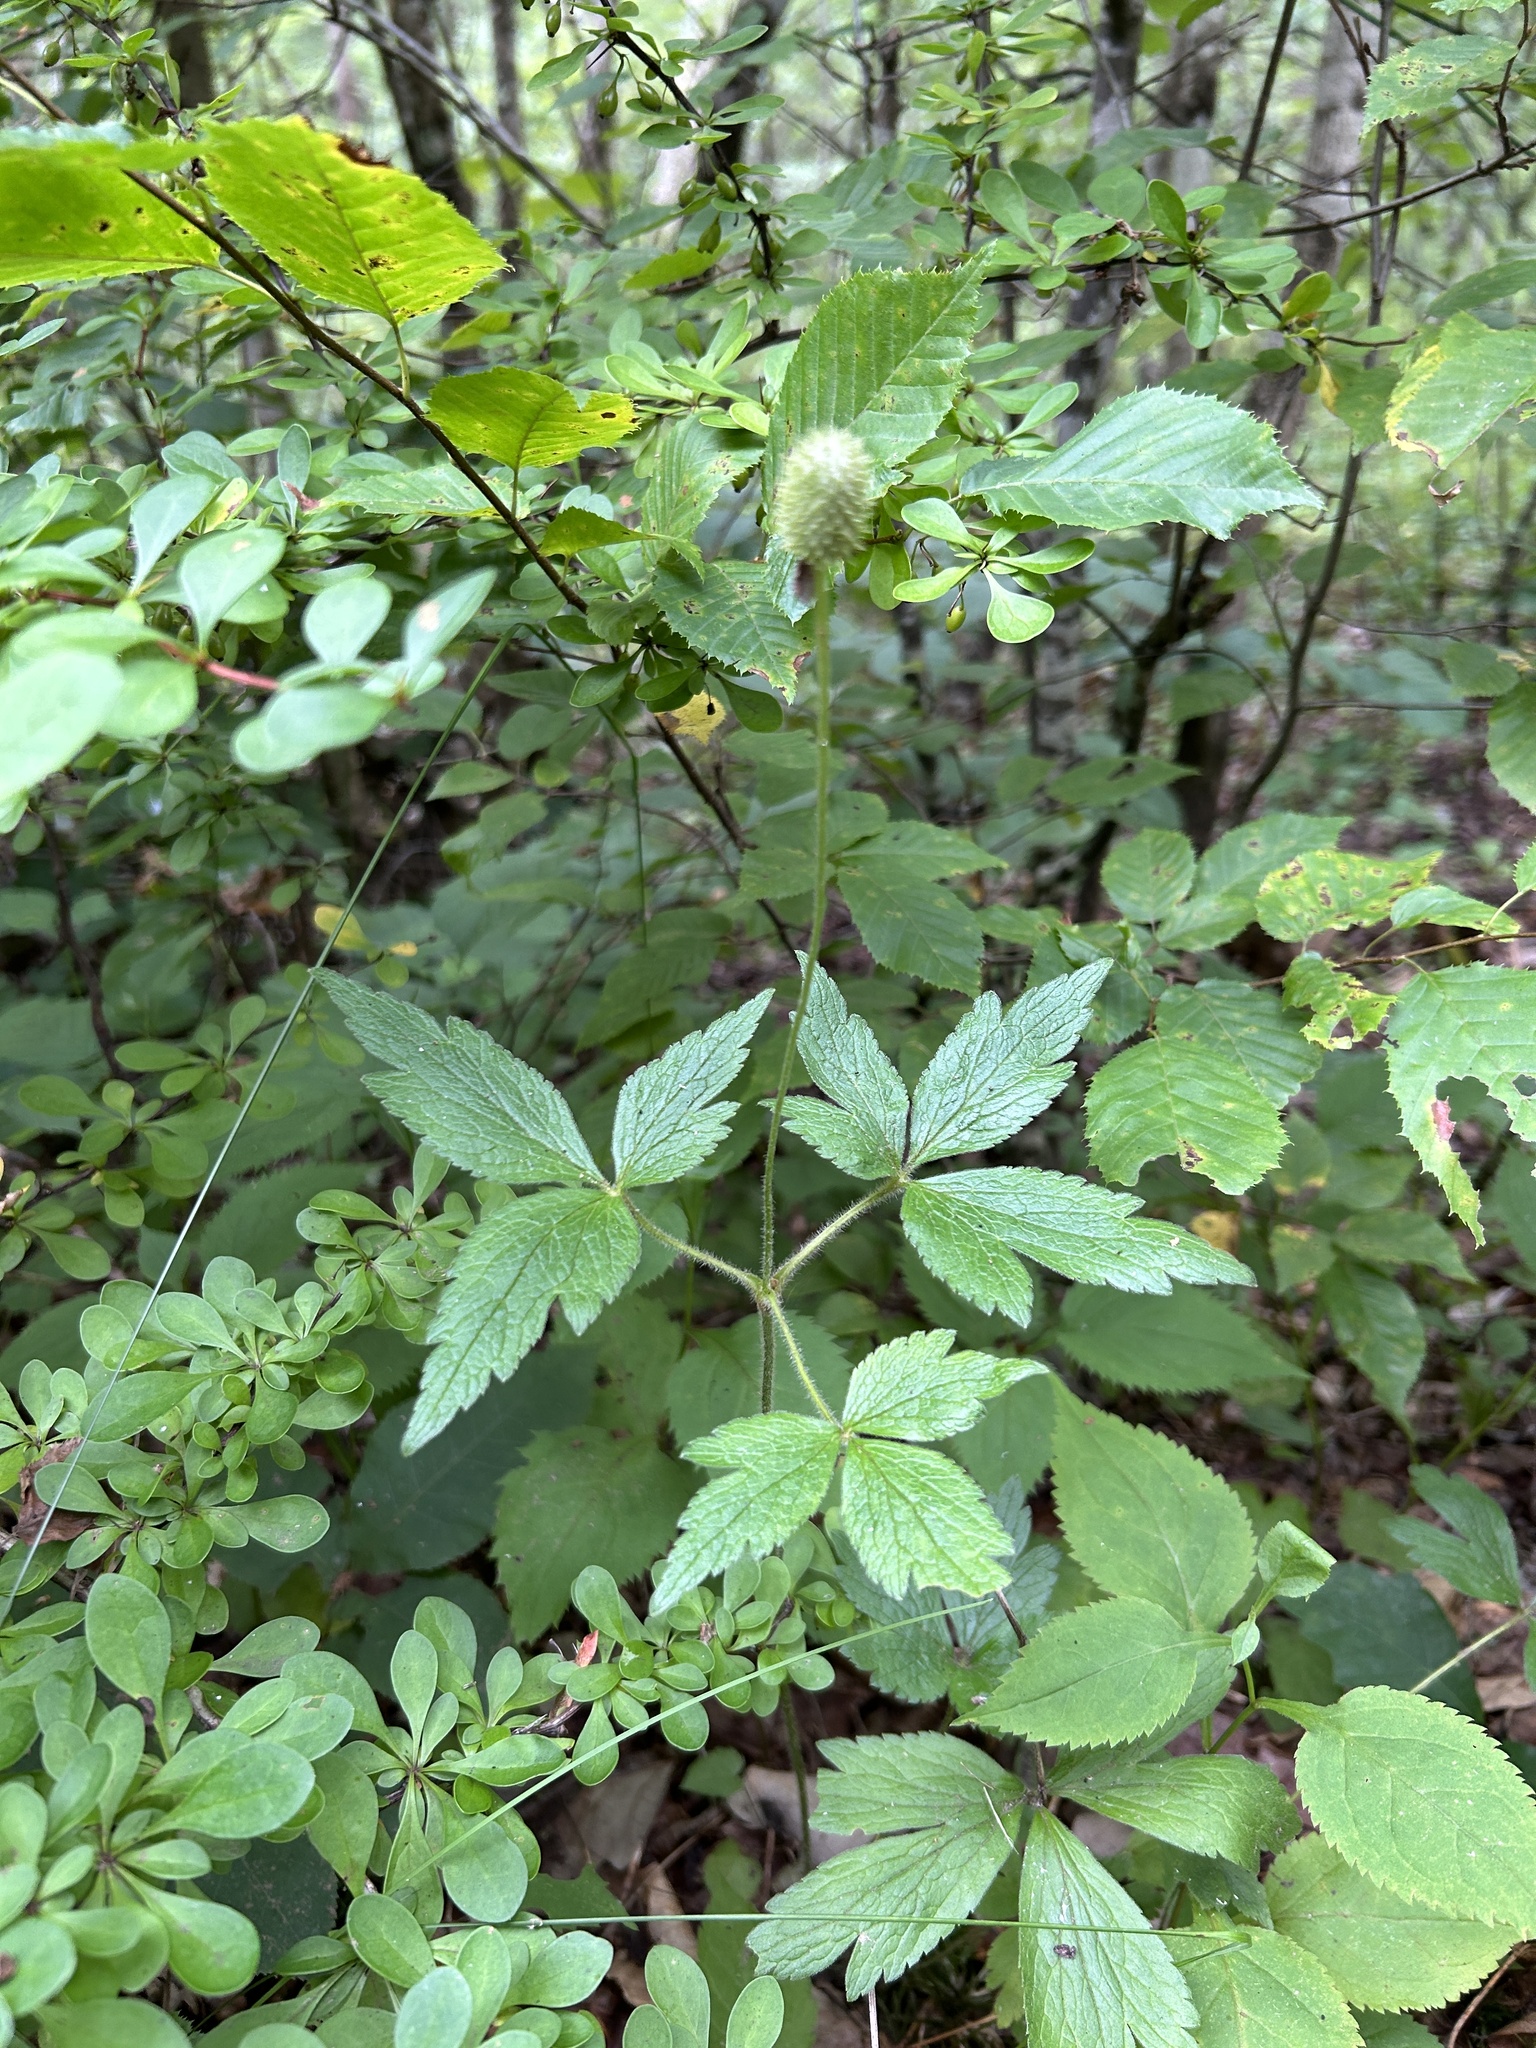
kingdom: Plantae
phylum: Tracheophyta
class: Magnoliopsida
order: Ranunculales
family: Ranunculaceae
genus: Anemone
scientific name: Anemone virginiana
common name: Tall anemone
